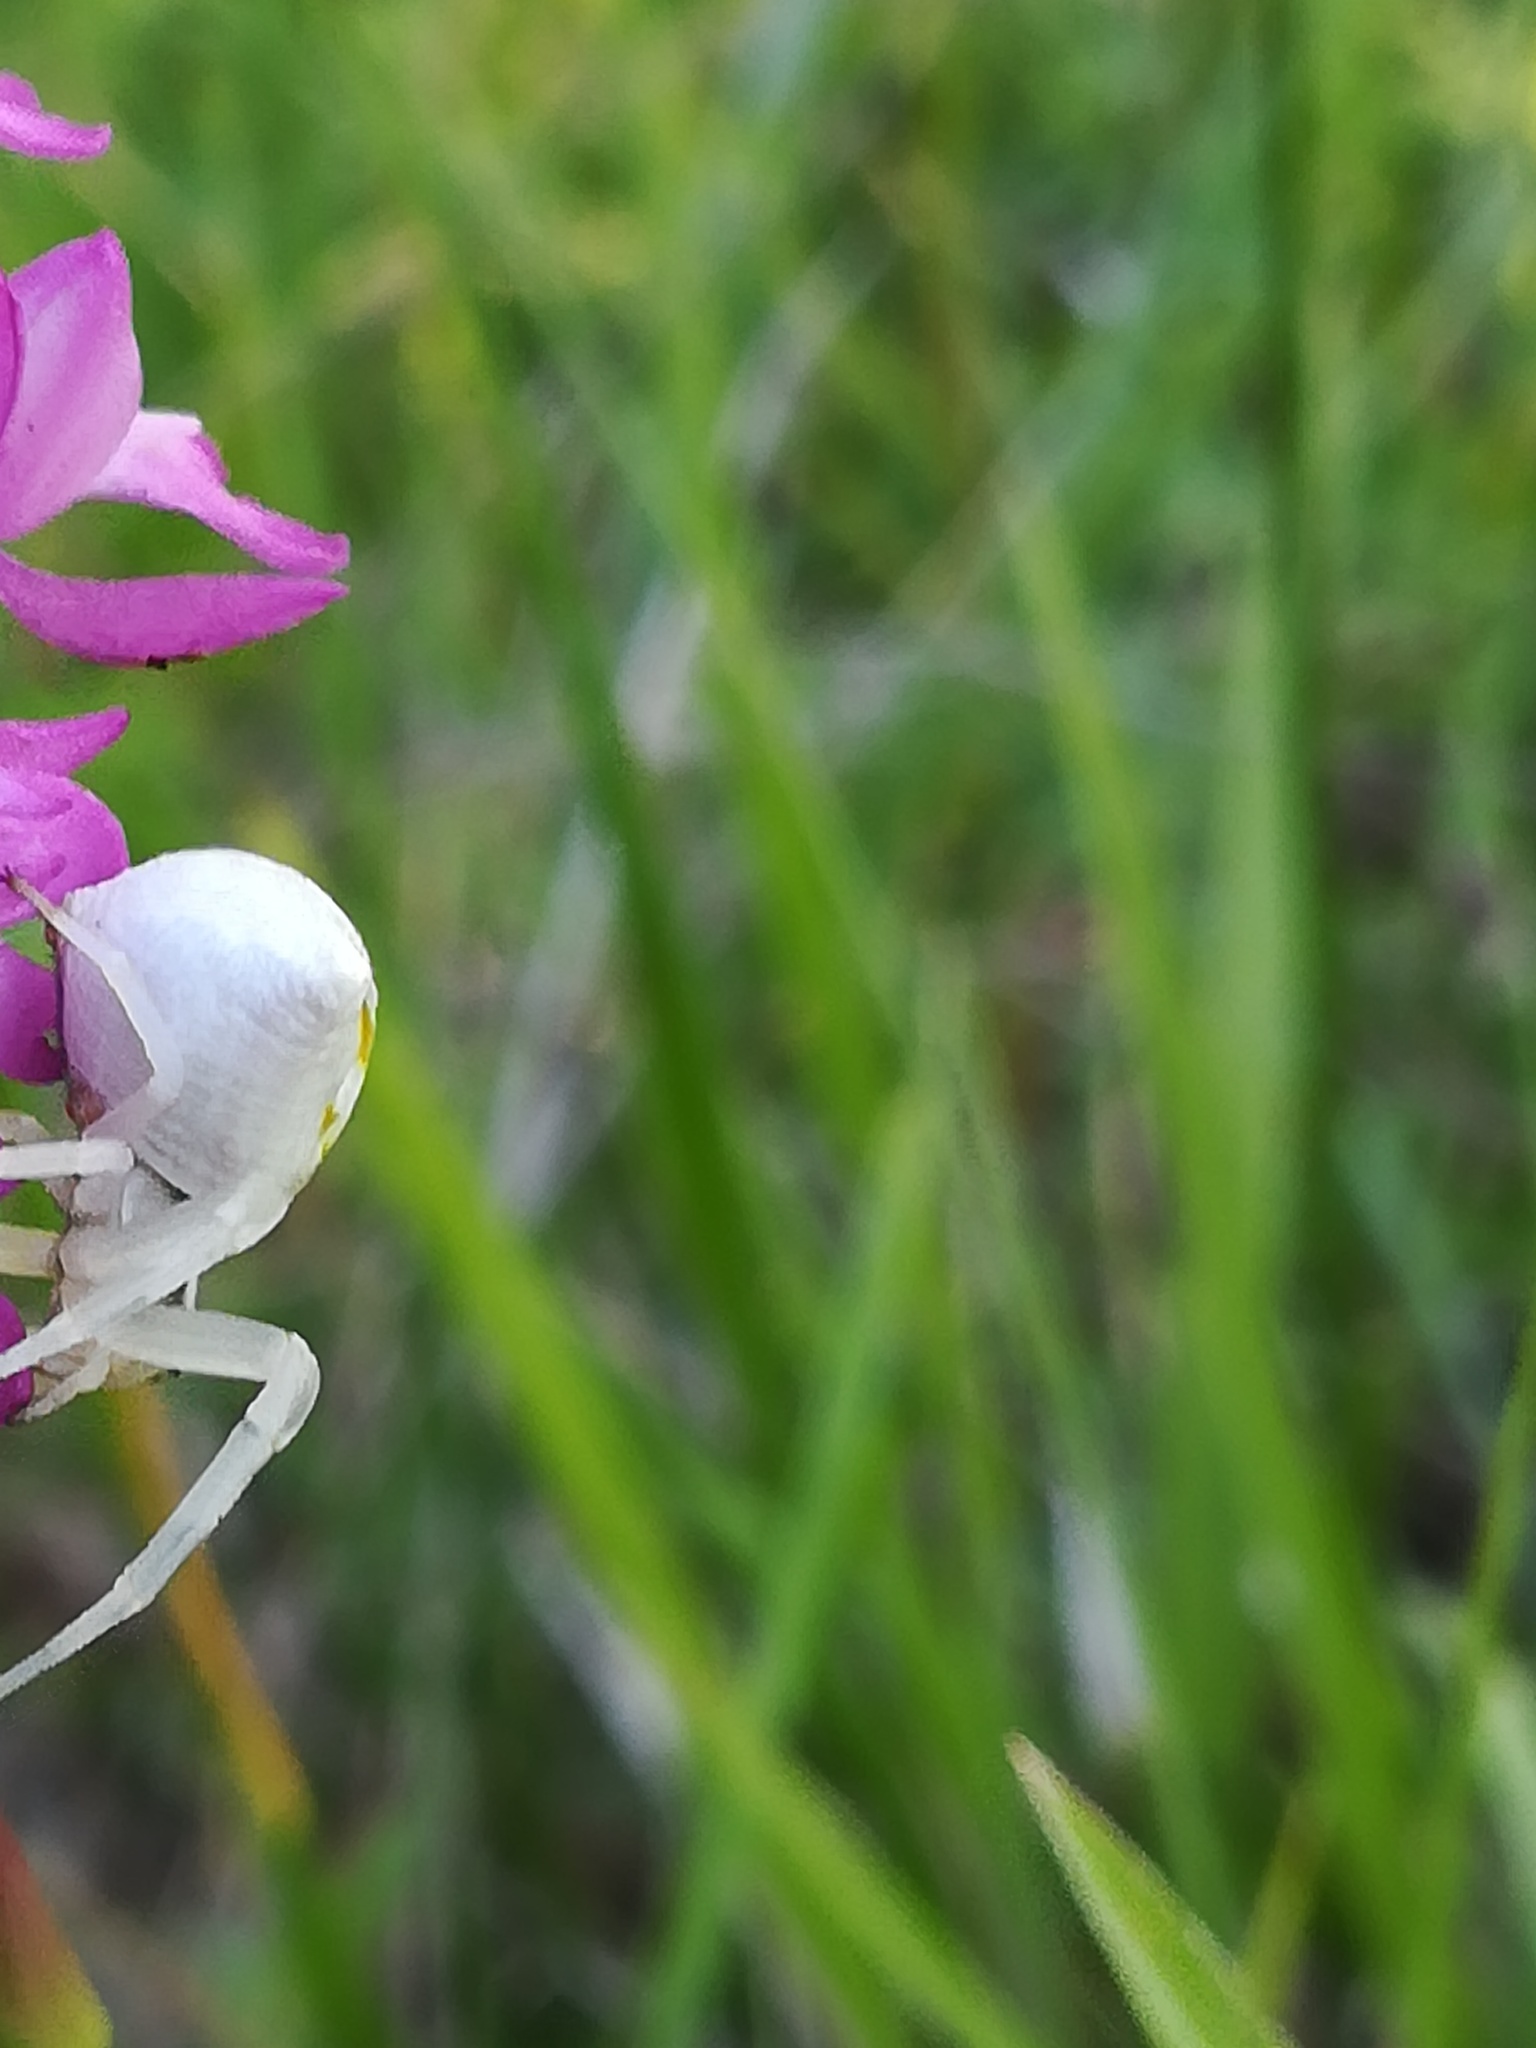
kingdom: Animalia
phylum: Arthropoda
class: Arachnida
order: Araneae
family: Thomisidae
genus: Thomisus
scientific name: Thomisus onustus
